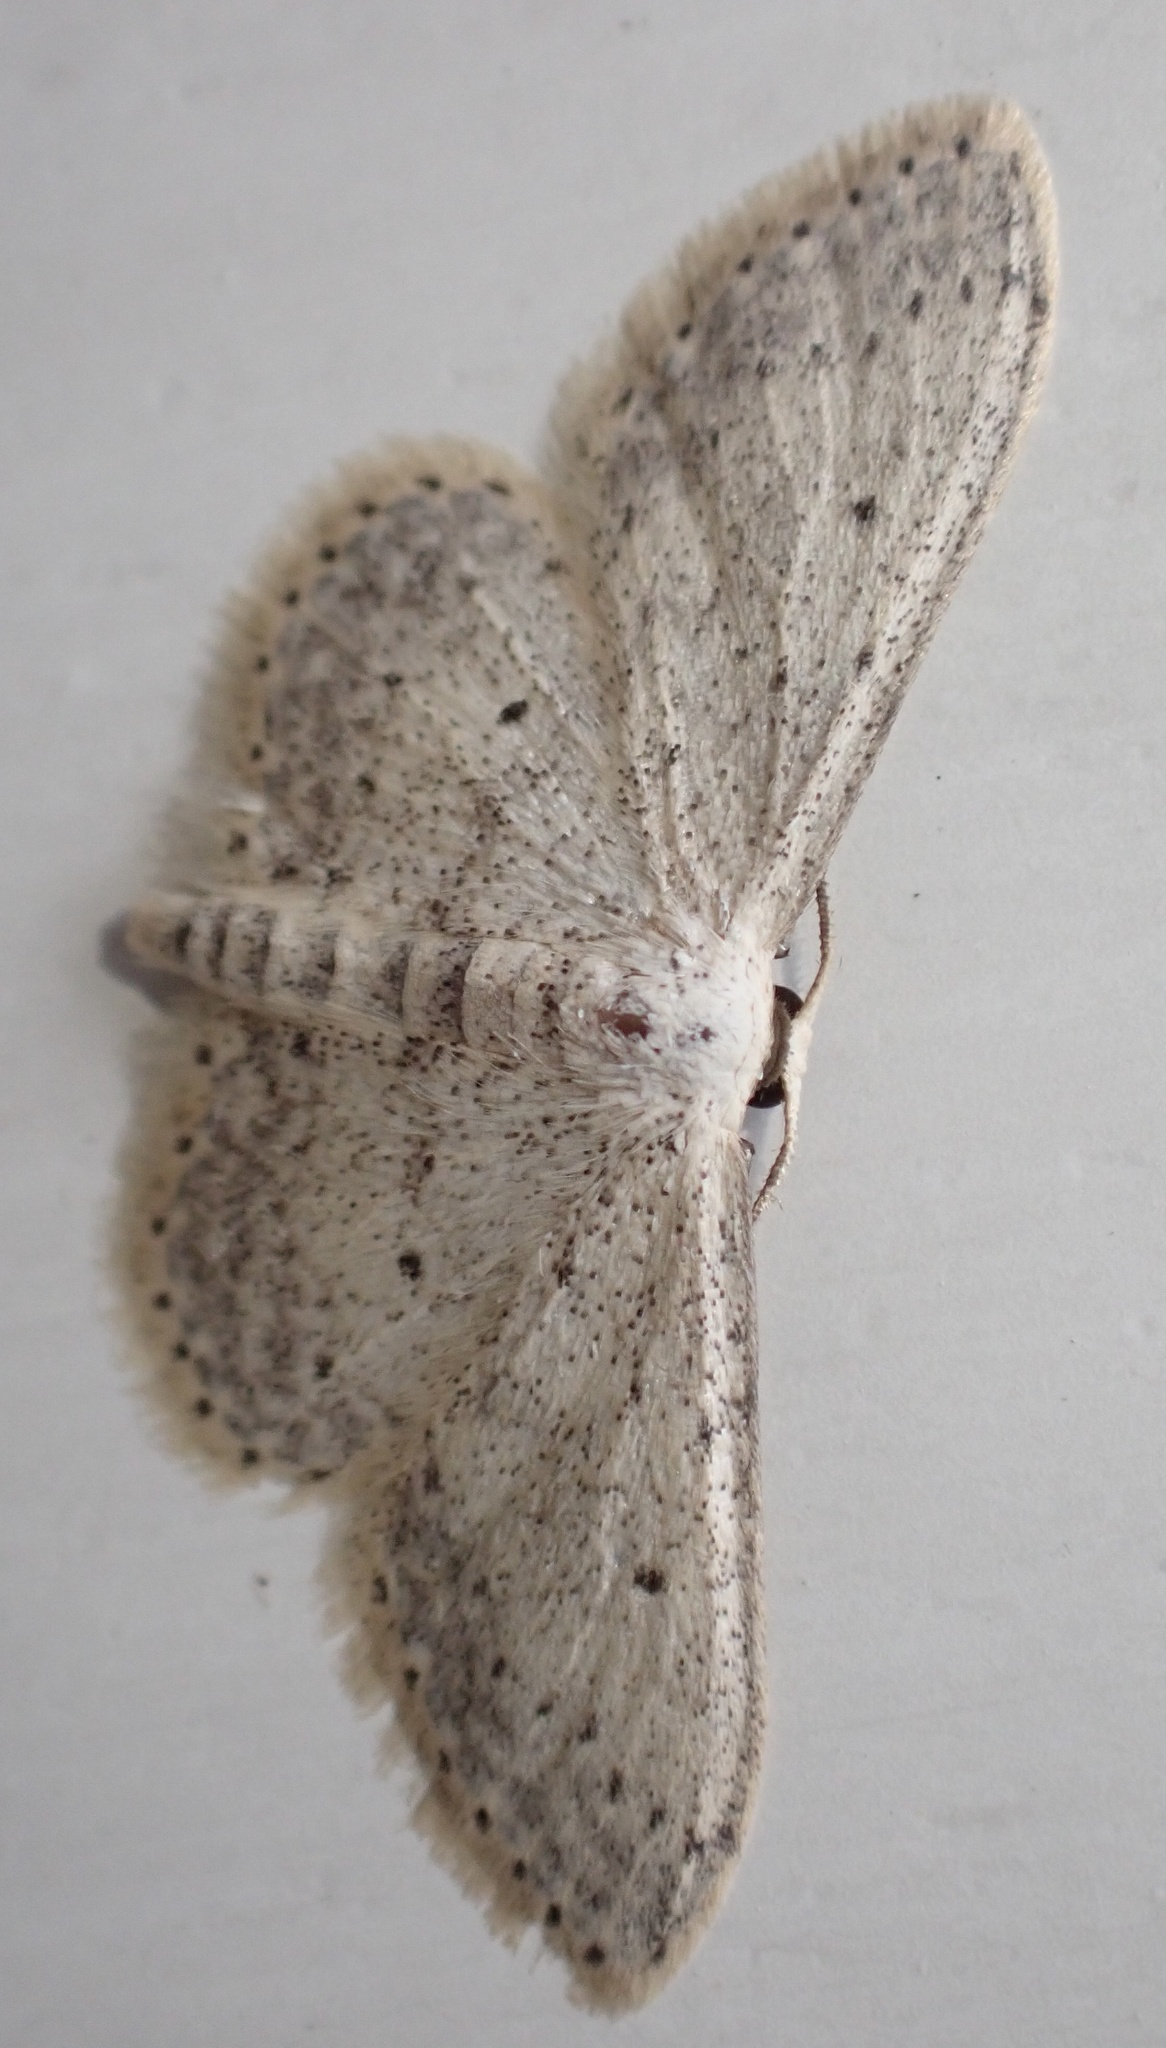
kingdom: Animalia
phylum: Arthropoda
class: Insecta
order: Lepidoptera
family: Geometridae
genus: Idaea
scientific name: Idaea seriata
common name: Small dusty wave
